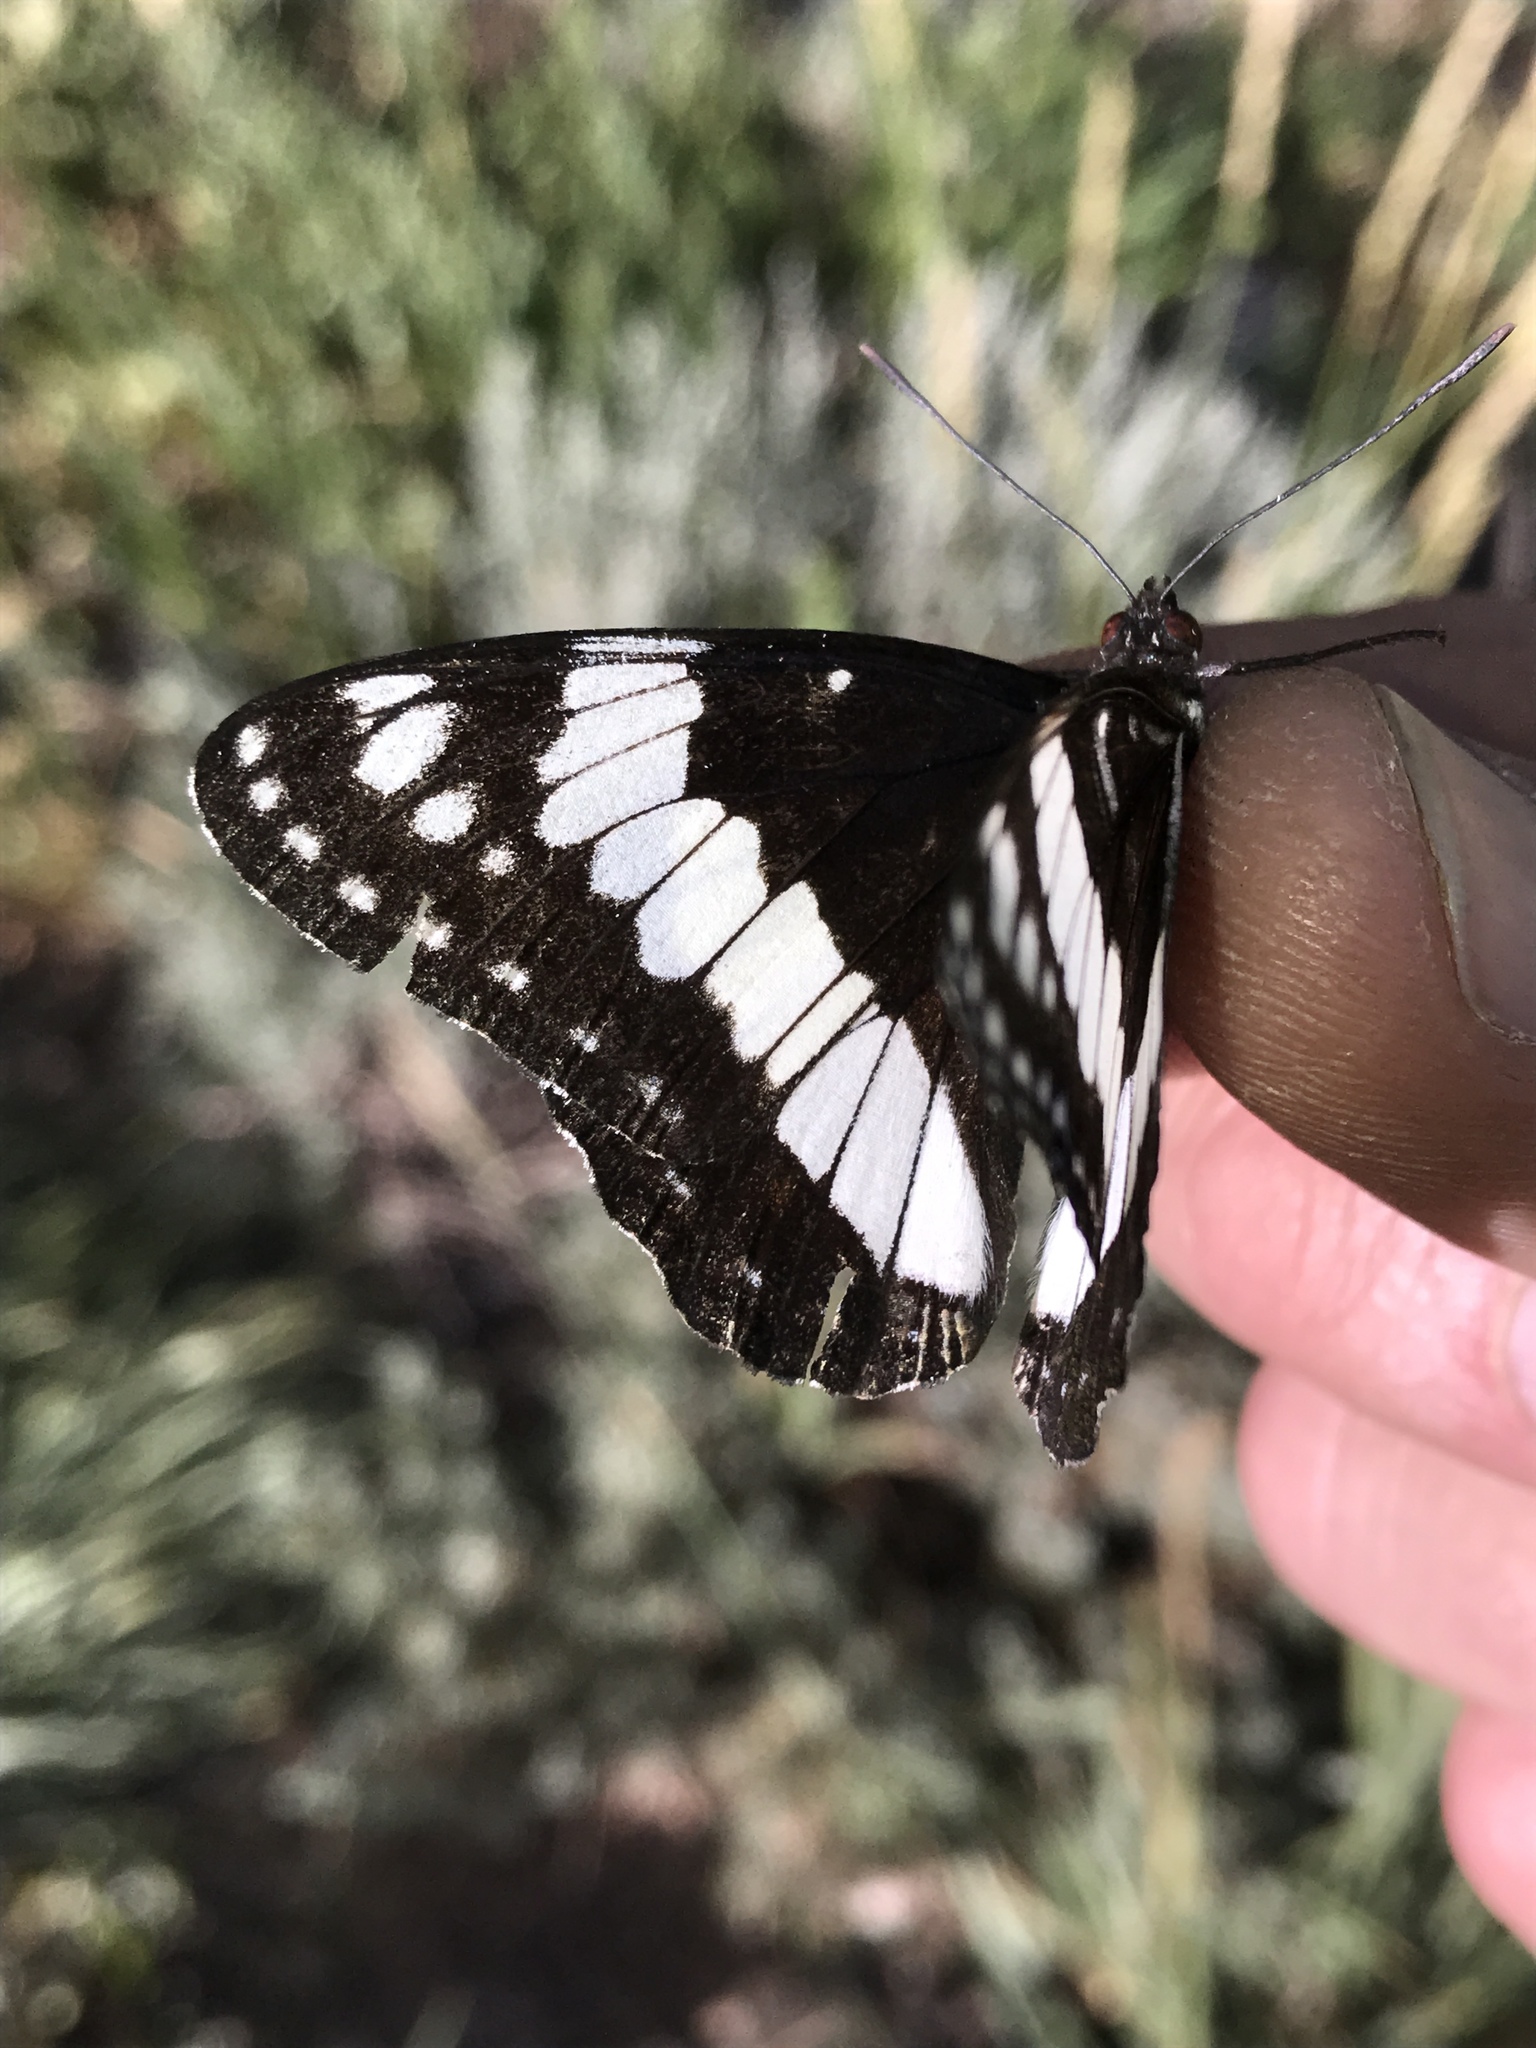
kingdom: Animalia
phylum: Arthropoda
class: Insecta
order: Lepidoptera
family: Nymphalidae
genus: Limenitis
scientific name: Limenitis weidemeyerii
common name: Weidemeyer's admiral
